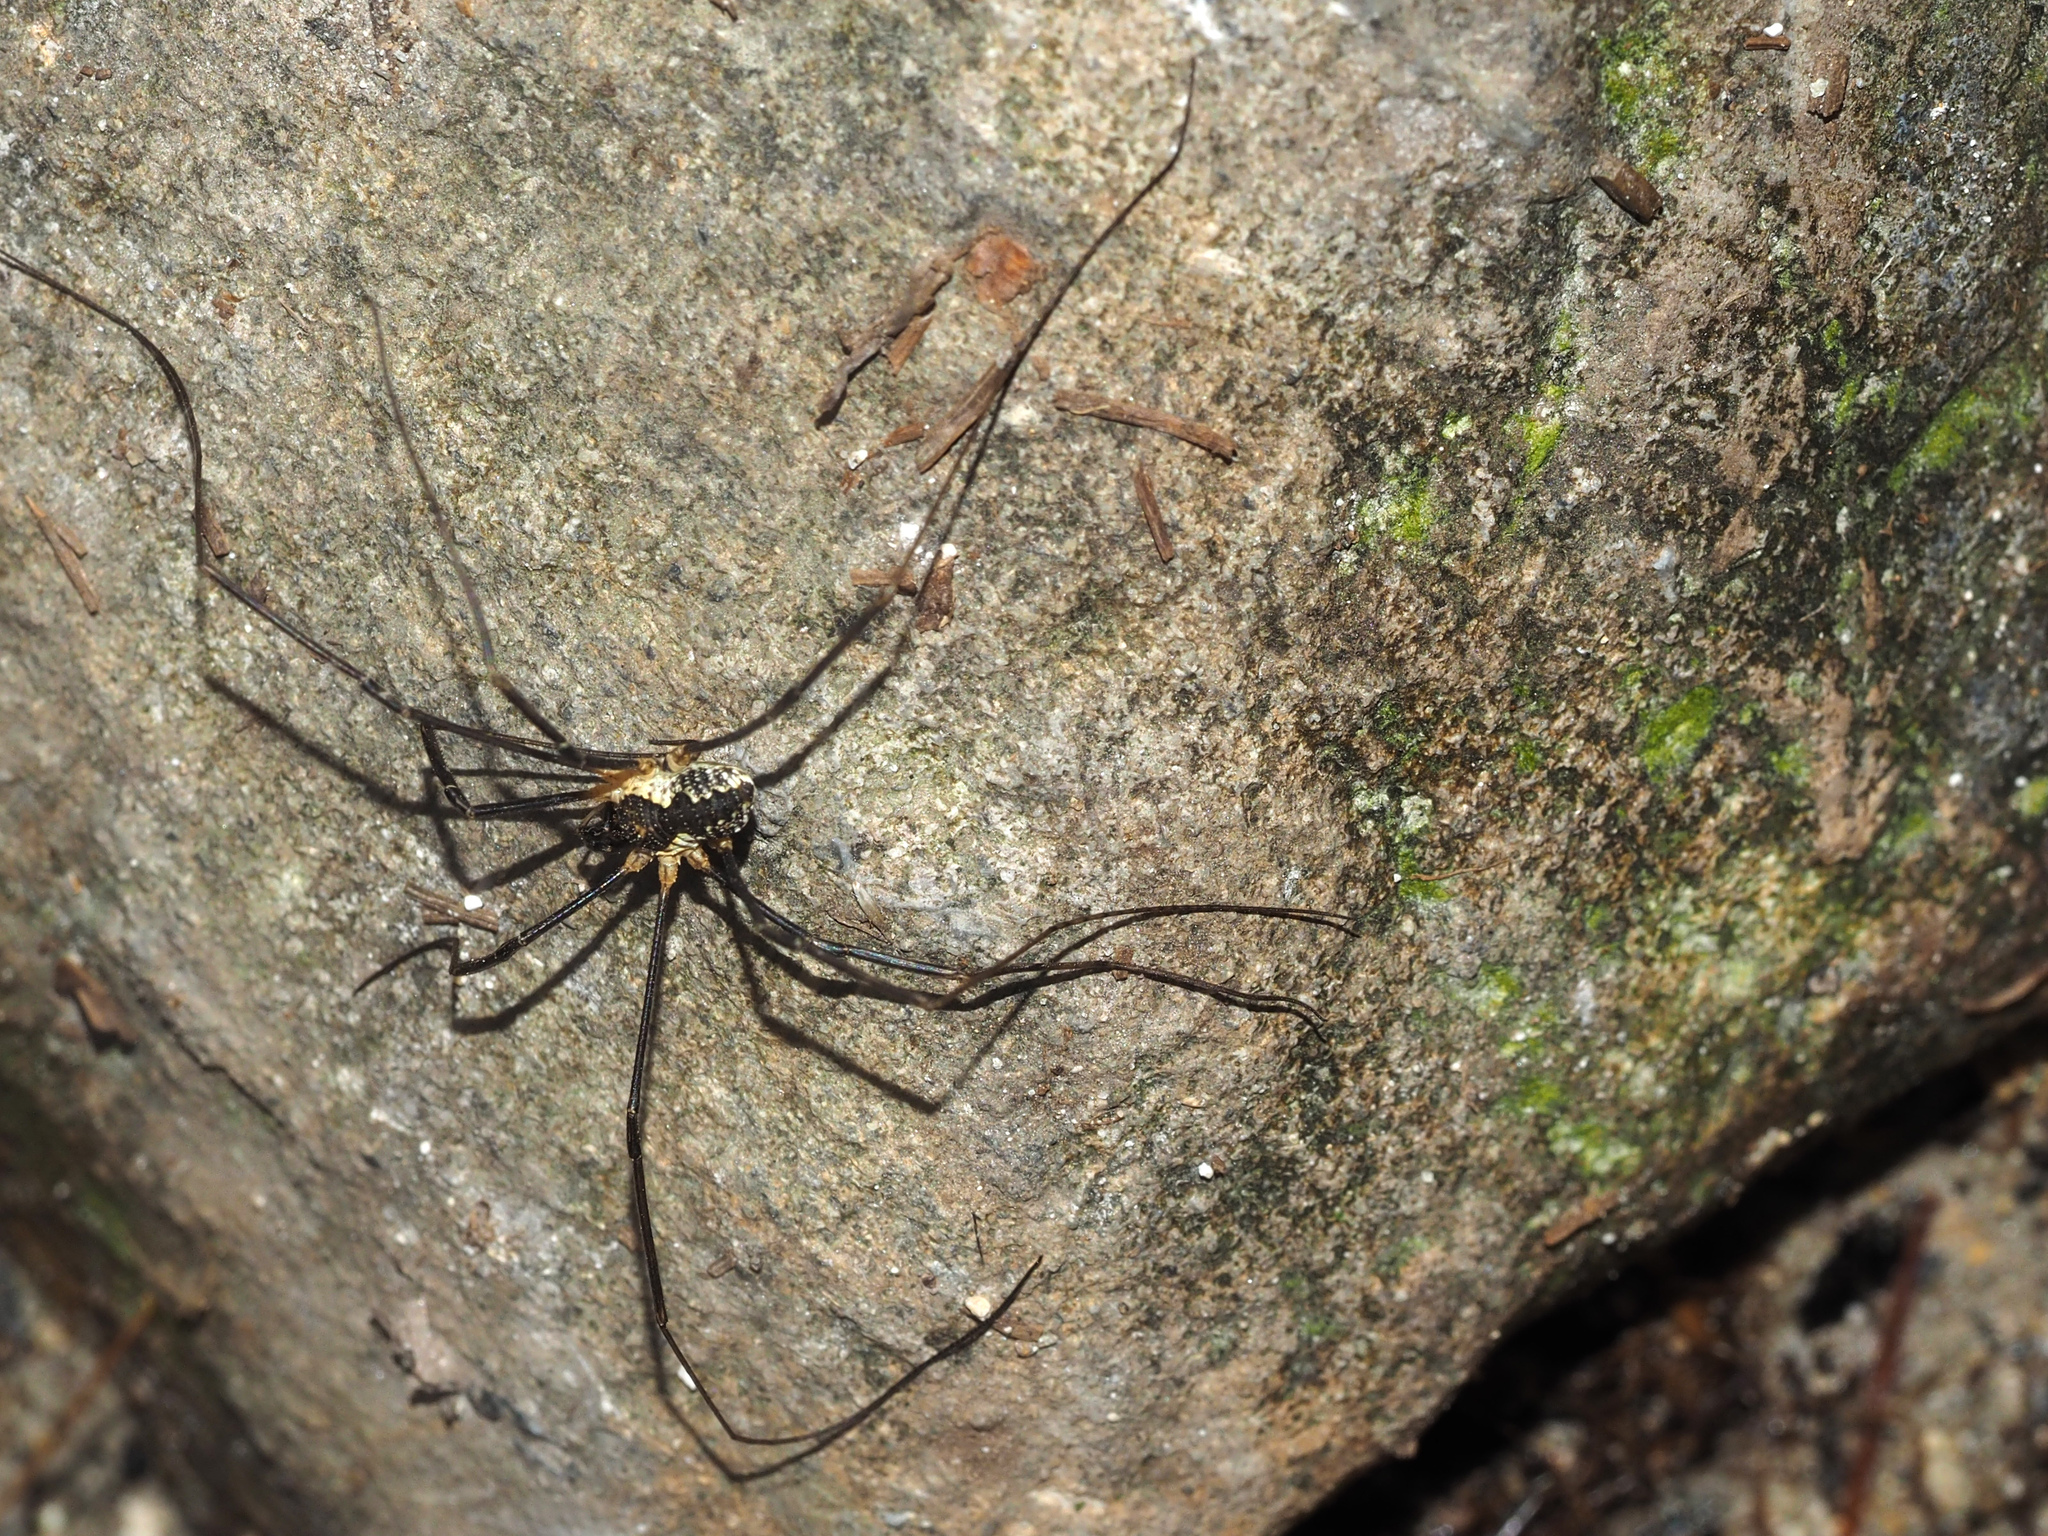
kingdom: Animalia
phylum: Arthropoda
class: Arachnida
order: Opiliones
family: Phalangiidae
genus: Mitopus
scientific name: Mitopus morio
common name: Saddleback harvestman
